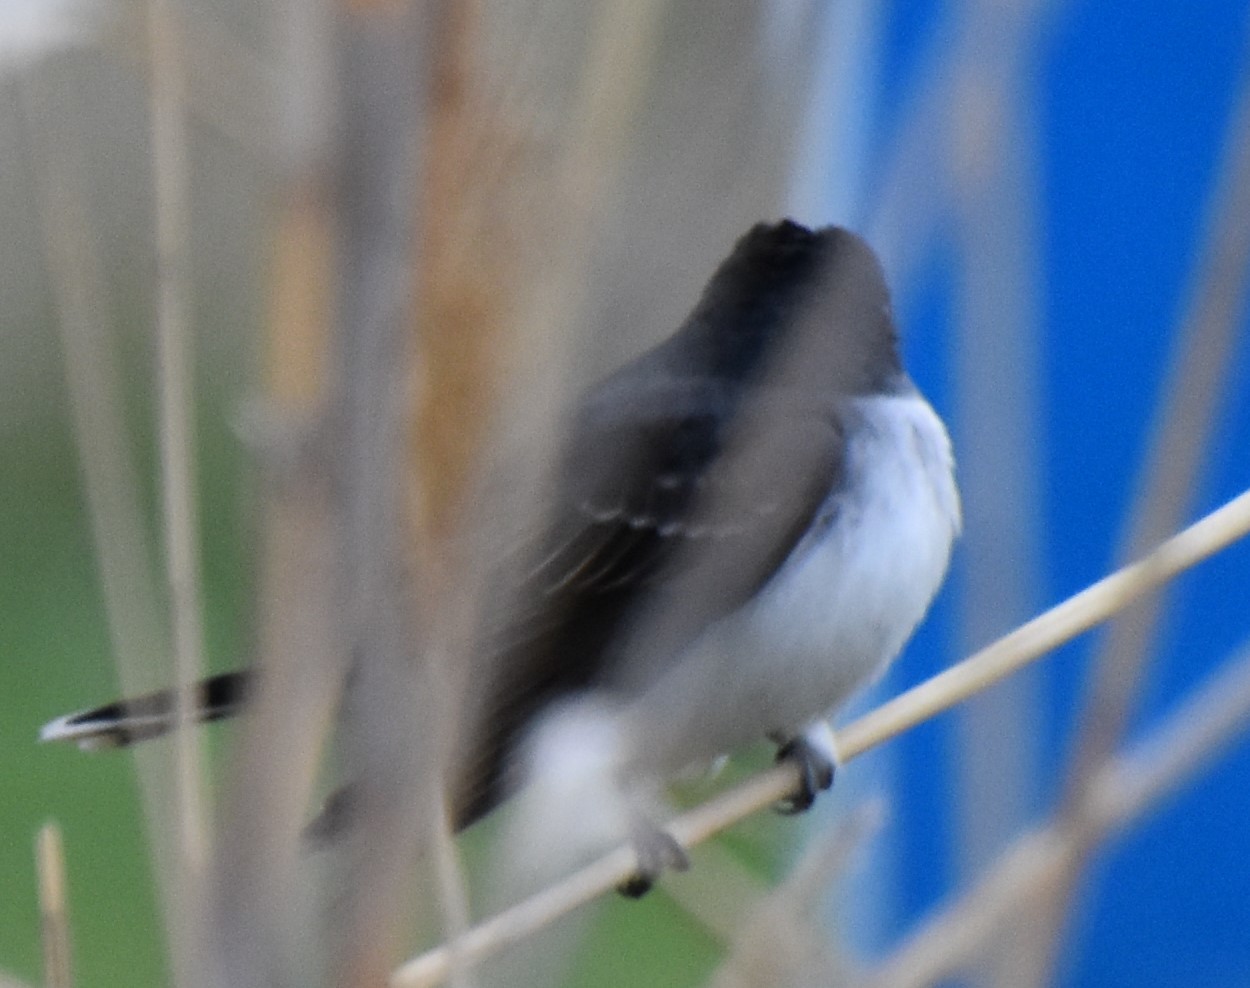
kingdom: Animalia
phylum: Chordata
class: Aves
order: Passeriformes
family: Tyrannidae
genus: Tyrannus
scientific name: Tyrannus tyrannus
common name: Eastern kingbird
